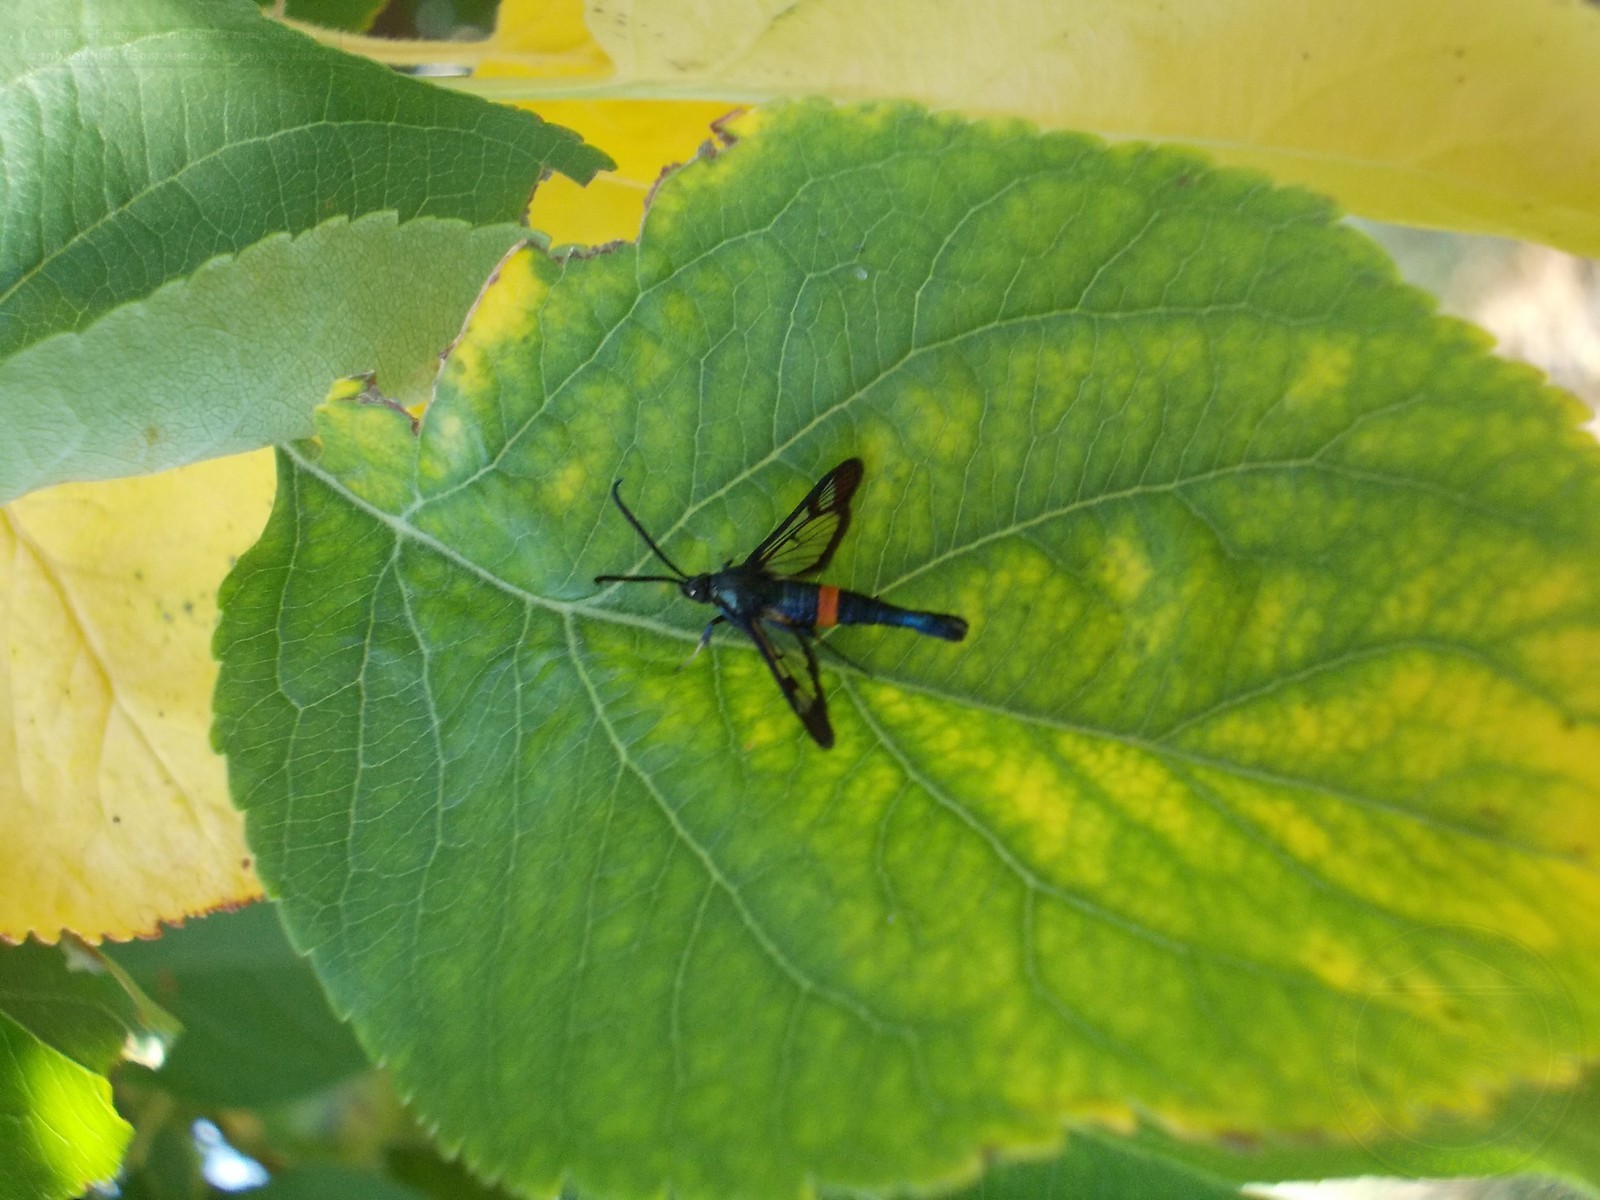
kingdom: Animalia
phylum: Arthropoda
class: Insecta
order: Lepidoptera
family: Sesiidae
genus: Synanthedon
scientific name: Synanthedon myopaeformis
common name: Red-belted clearwing
